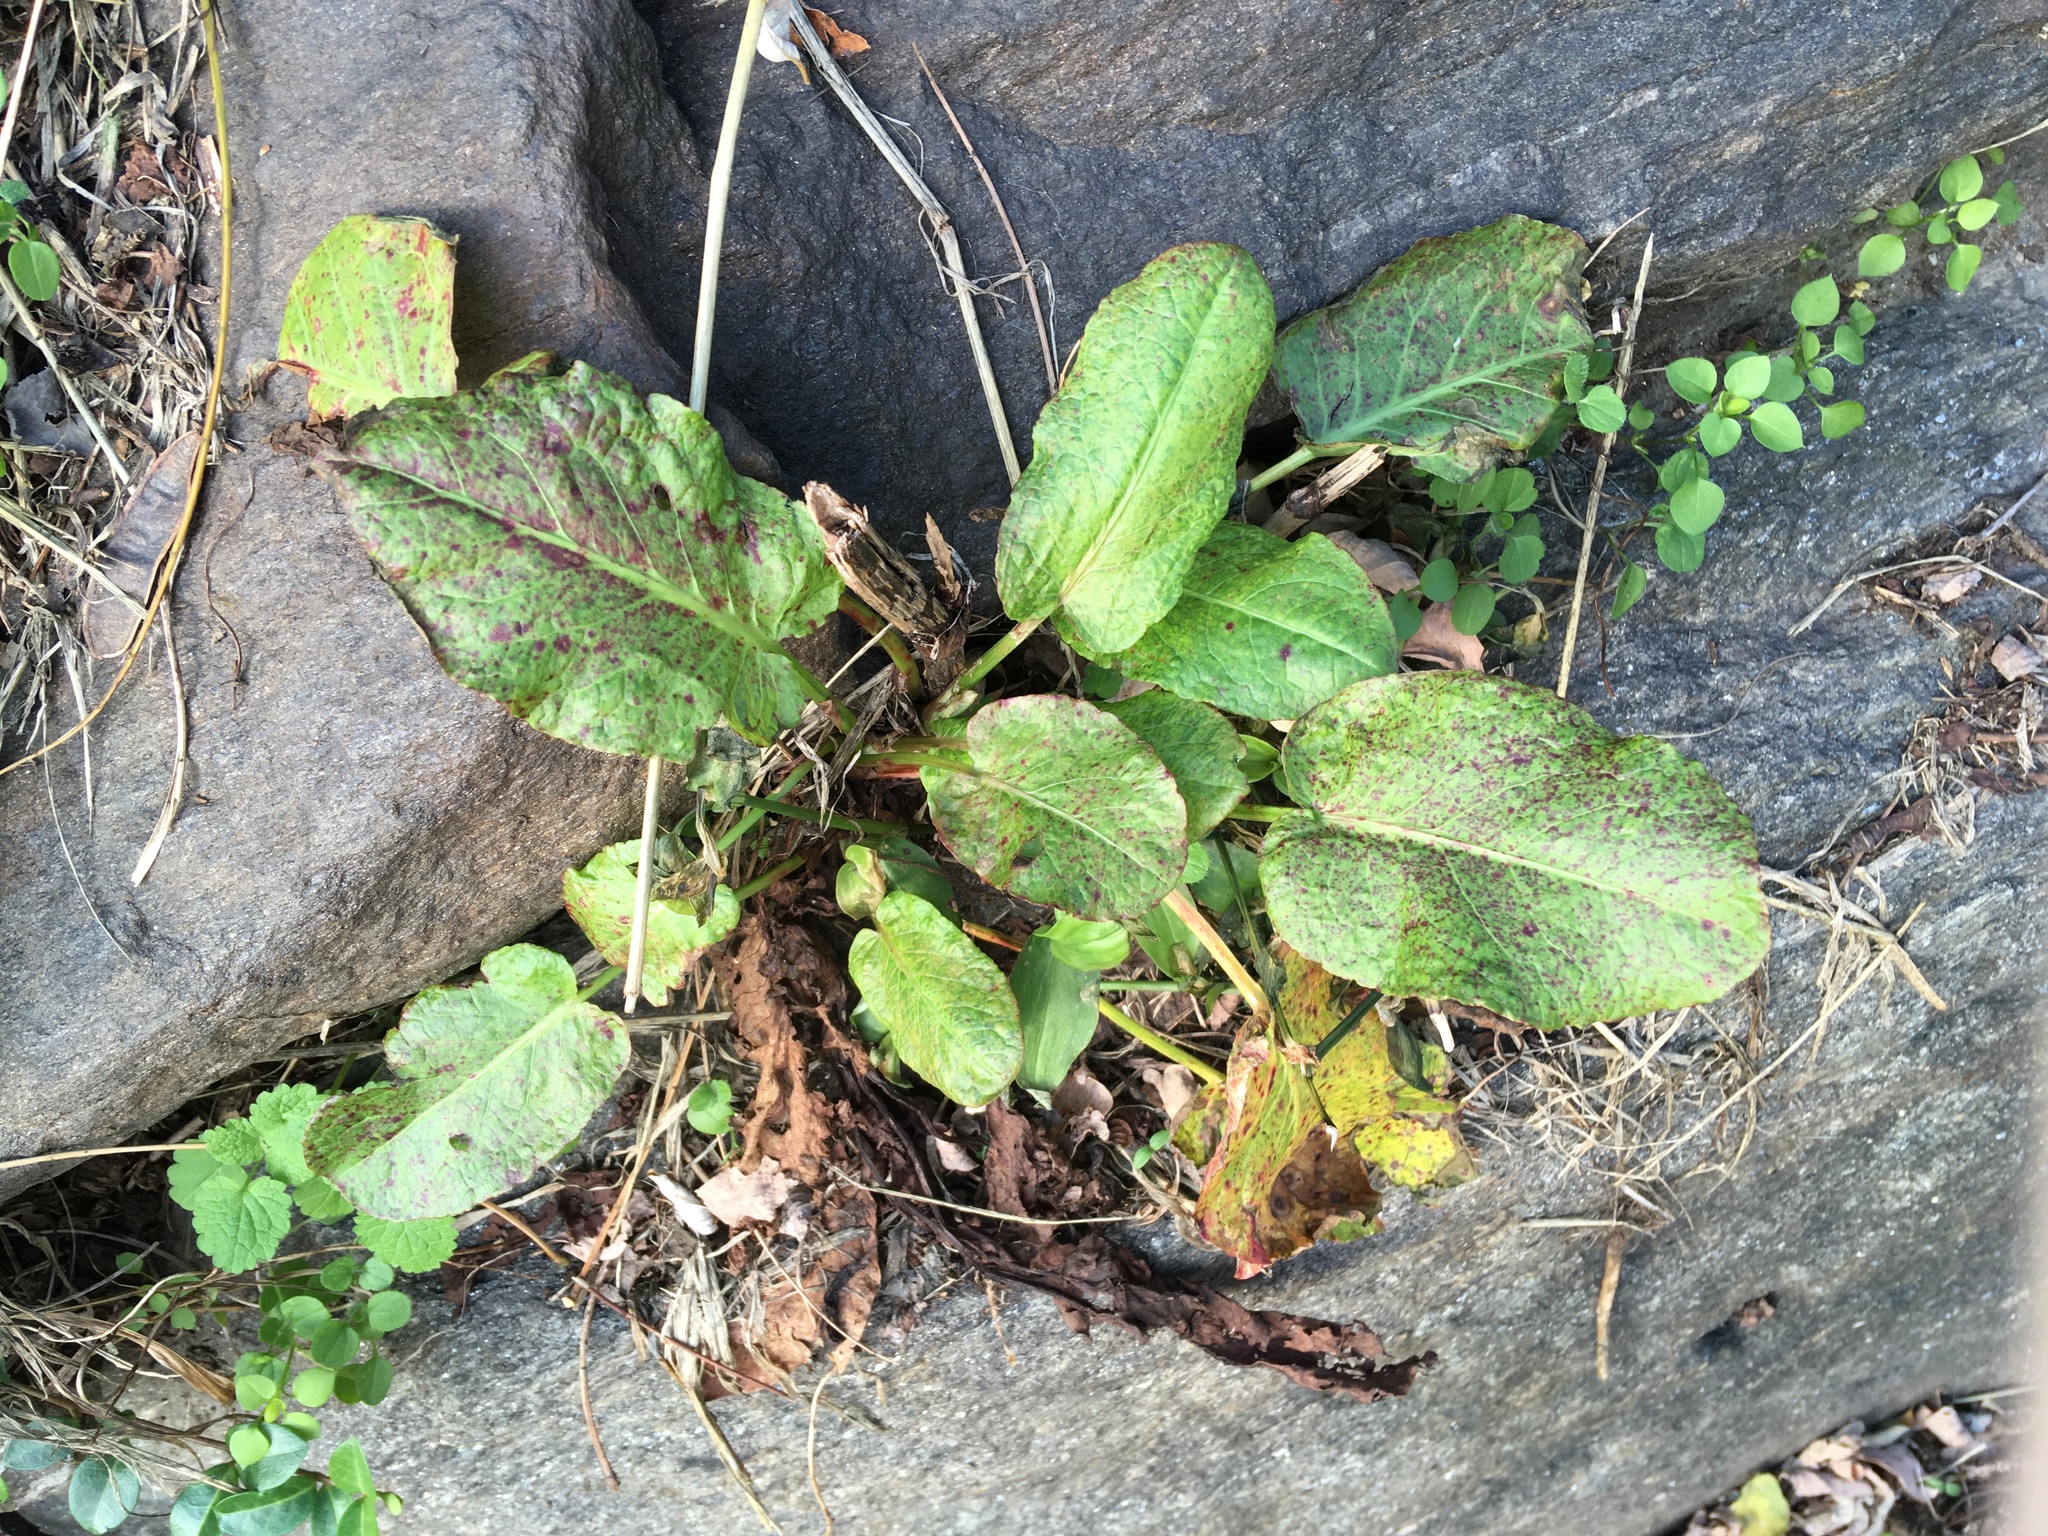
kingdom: Plantae
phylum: Tracheophyta
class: Magnoliopsida
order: Caryophyllales
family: Polygonaceae
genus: Rumex
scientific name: Rumex obtusifolius
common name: Bitter dock
